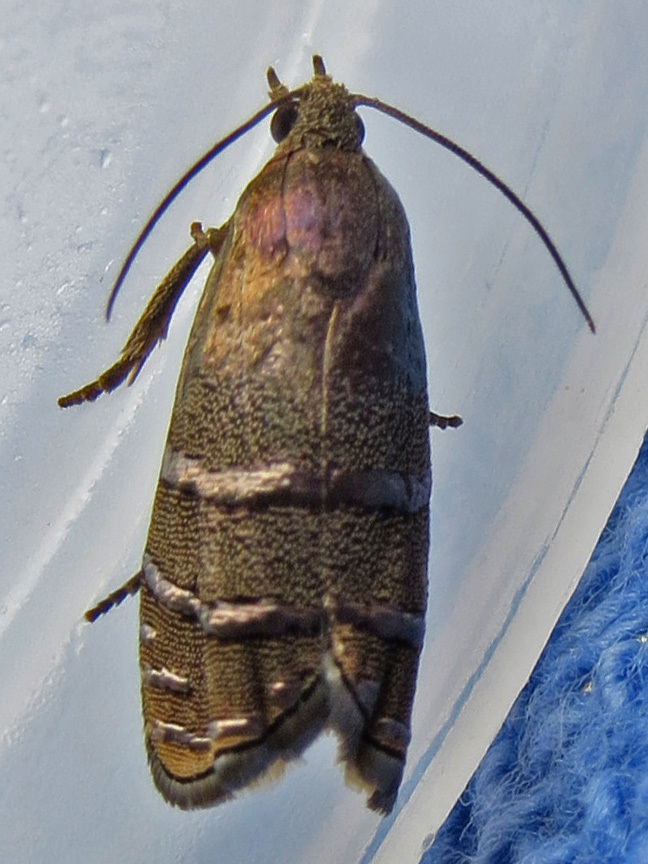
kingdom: Animalia
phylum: Arthropoda
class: Insecta
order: Lepidoptera
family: Tortricidae
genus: Cydia
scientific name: Cydia toreuta
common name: Eastern pine seedworm moth
